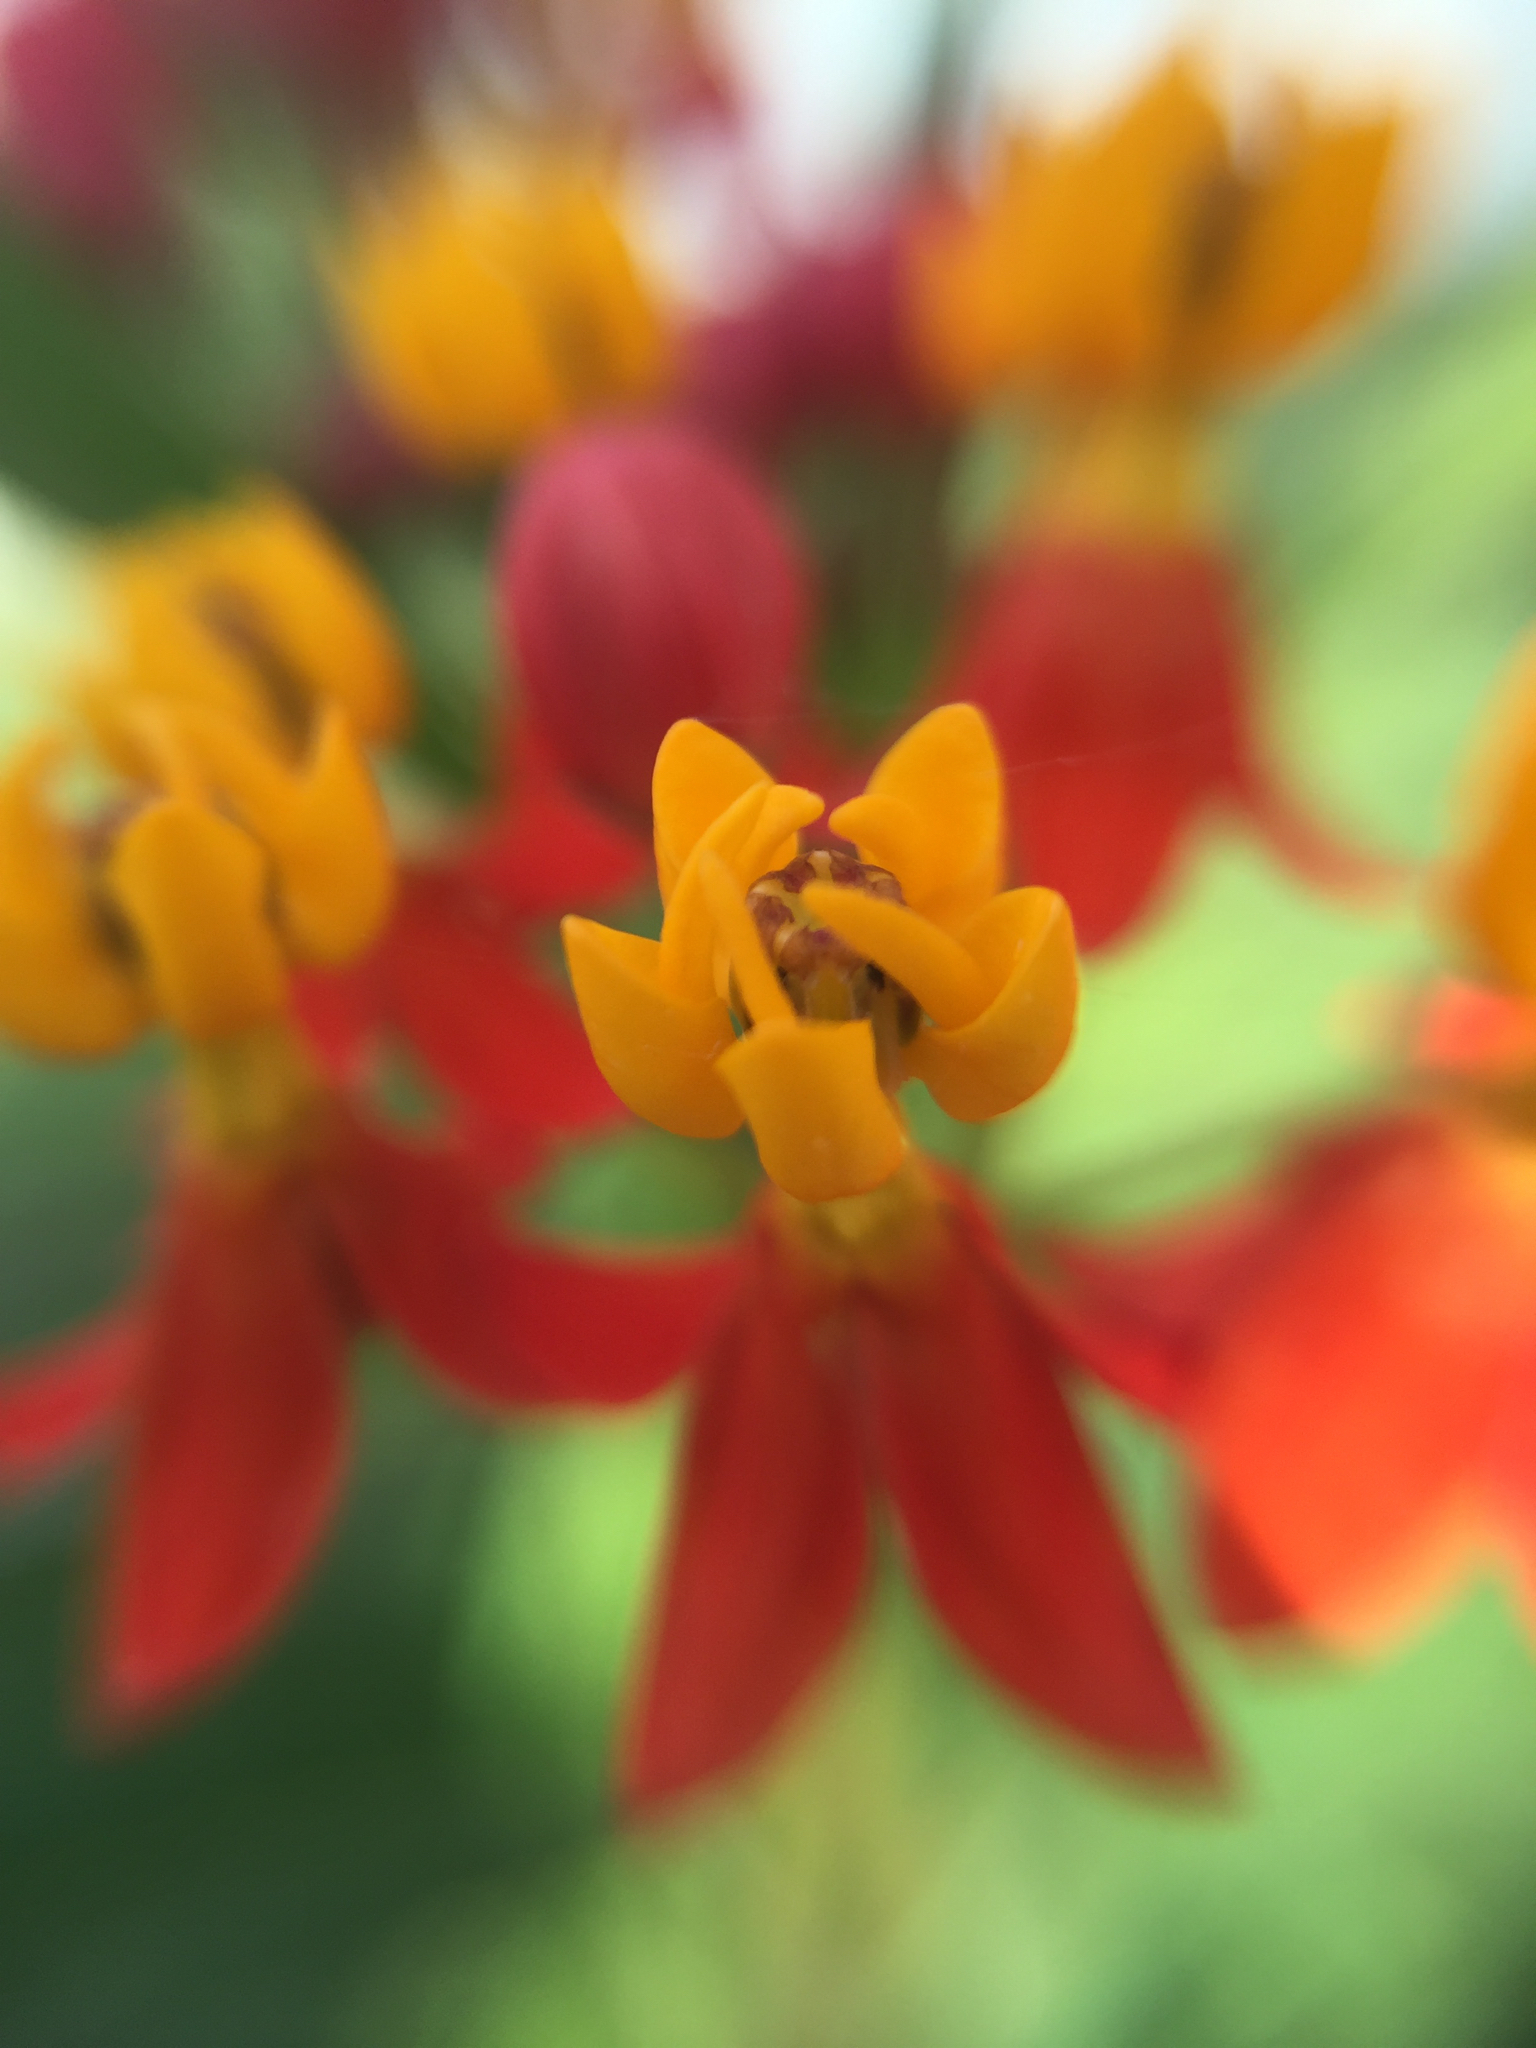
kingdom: Plantae
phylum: Tracheophyta
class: Magnoliopsida
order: Gentianales
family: Apocynaceae
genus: Asclepias
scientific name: Asclepias curassavica
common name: Bloodflower
